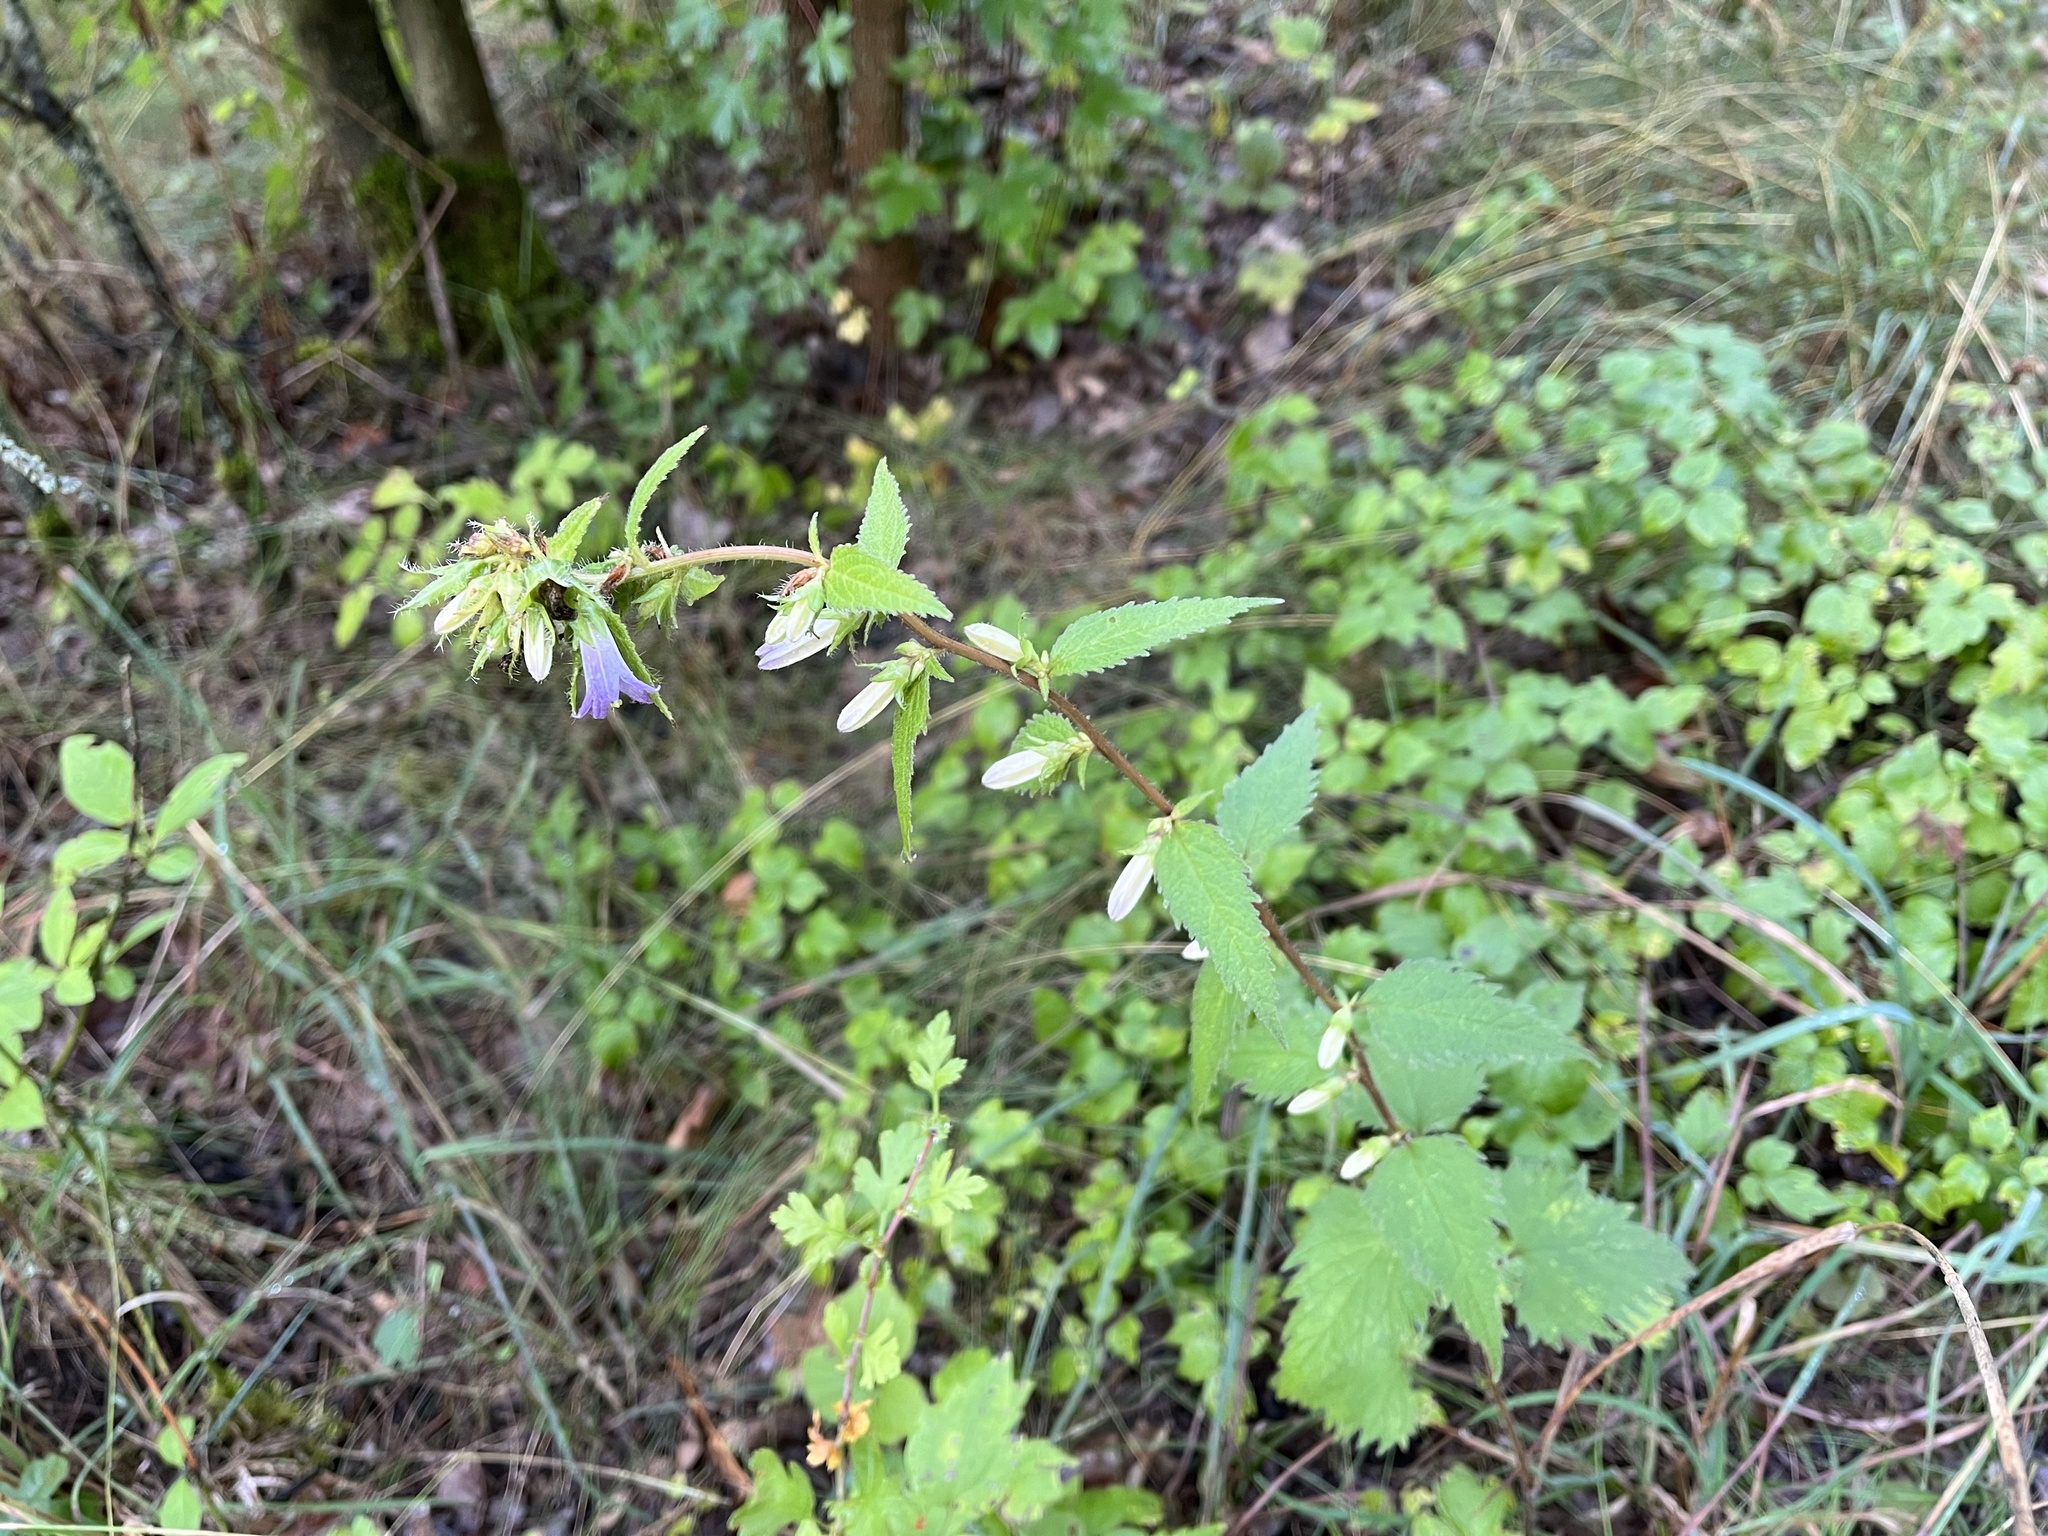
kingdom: Plantae
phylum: Tracheophyta
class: Magnoliopsida
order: Asterales
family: Campanulaceae
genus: Campanula
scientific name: Campanula trachelium
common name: Nettle-leaved bellflower
